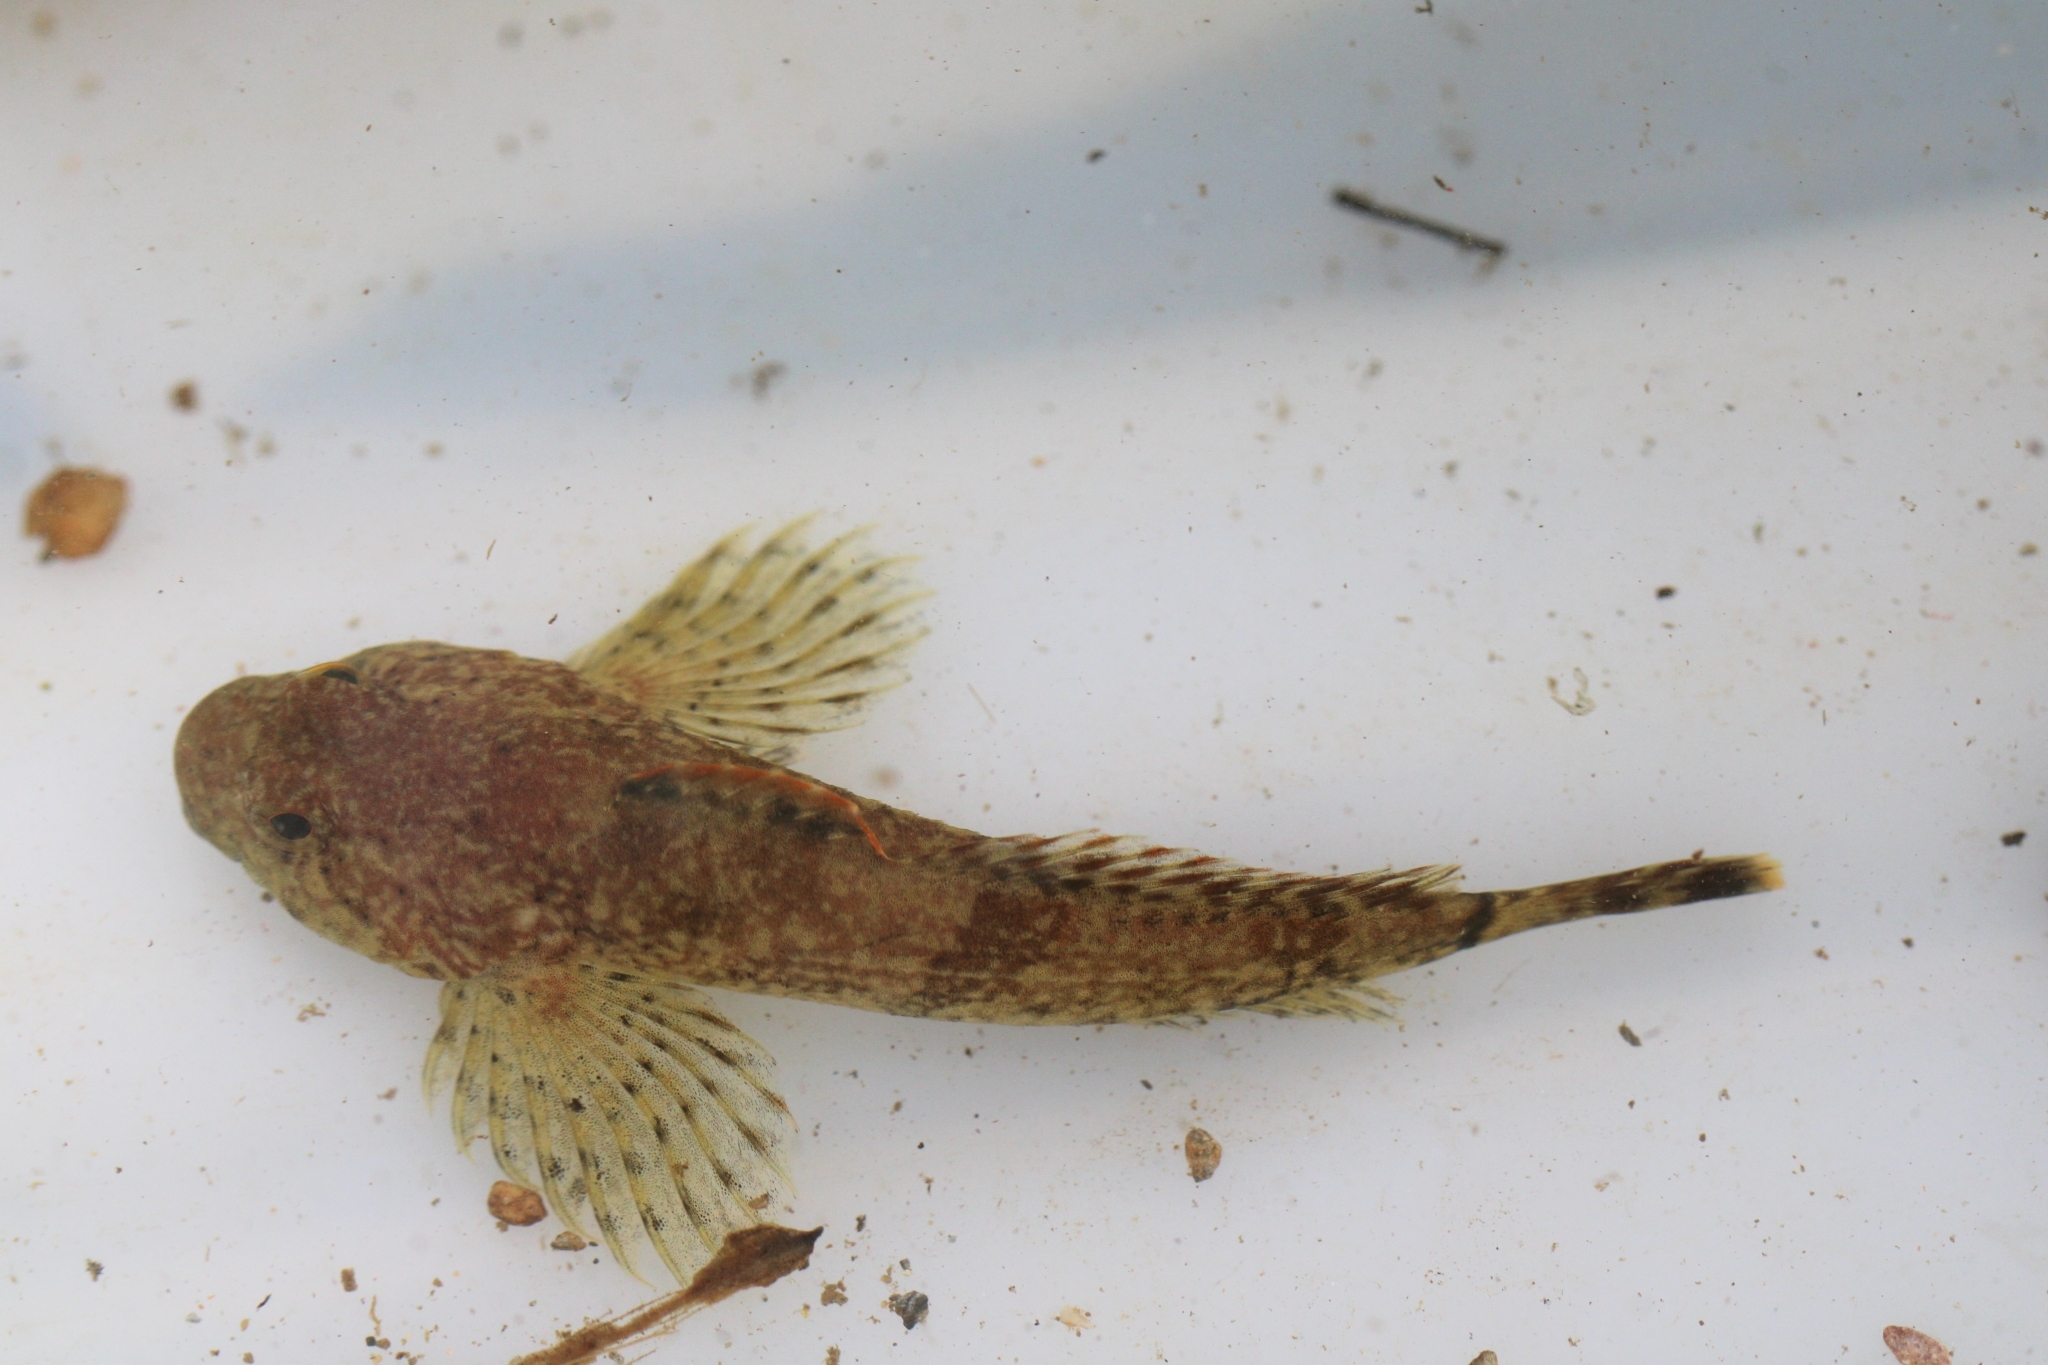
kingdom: Animalia
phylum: Chordata
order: Scorpaeniformes
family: Cottidae
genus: Cottus
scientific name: Cottus caeruleomentum
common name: Blue ridge sculpin
